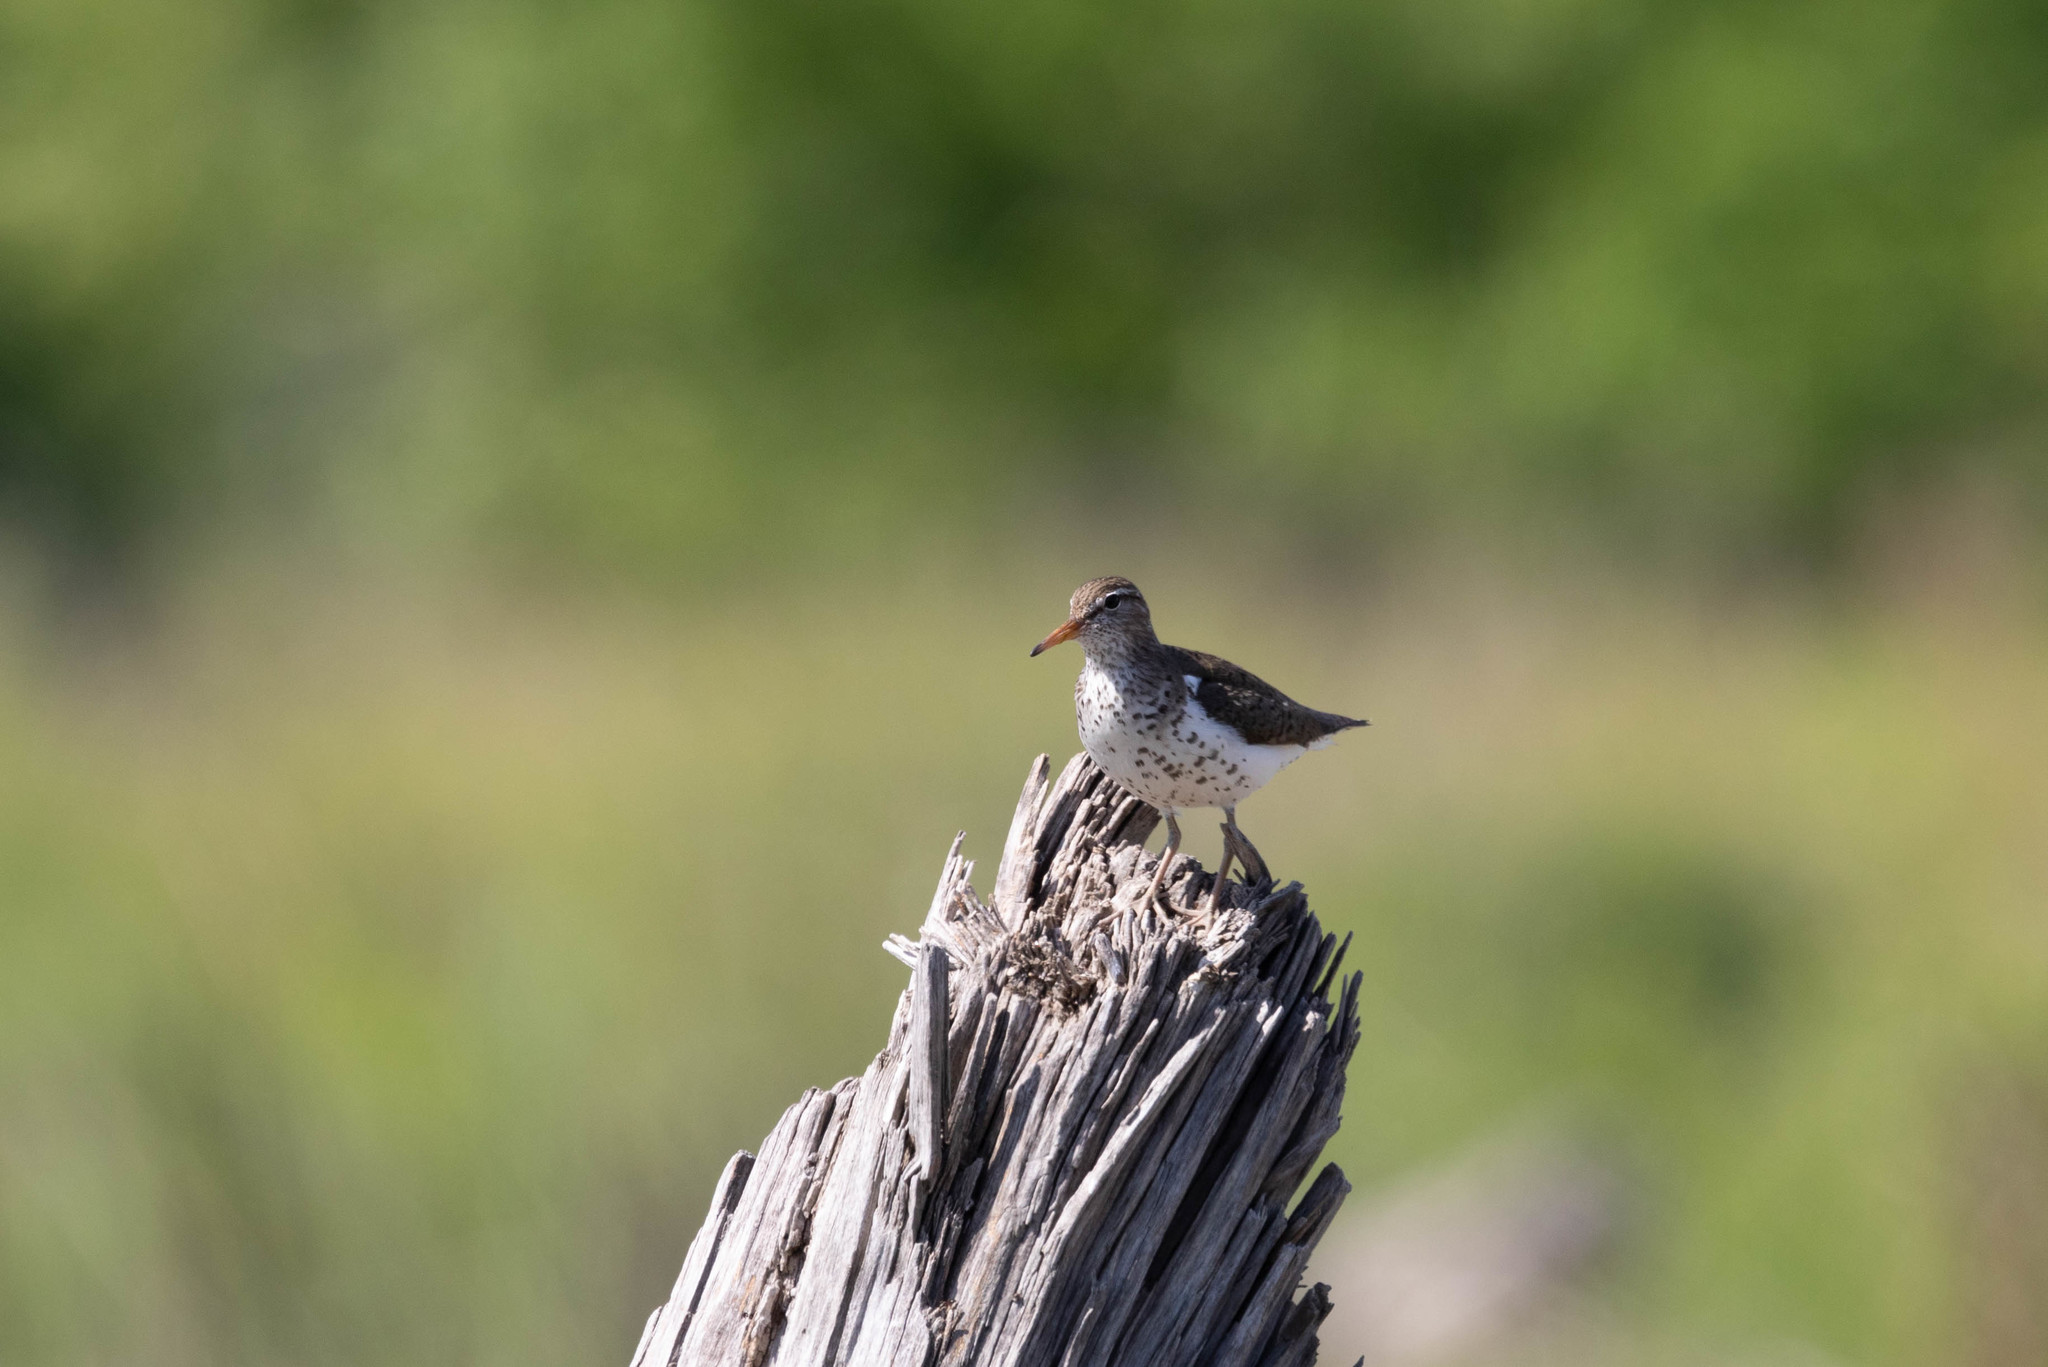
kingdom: Animalia
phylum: Chordata
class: Aves
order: Charadriiformes
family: Scolopacidae
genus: Actitis
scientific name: Actitis macularius
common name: Spotted sandpiper
